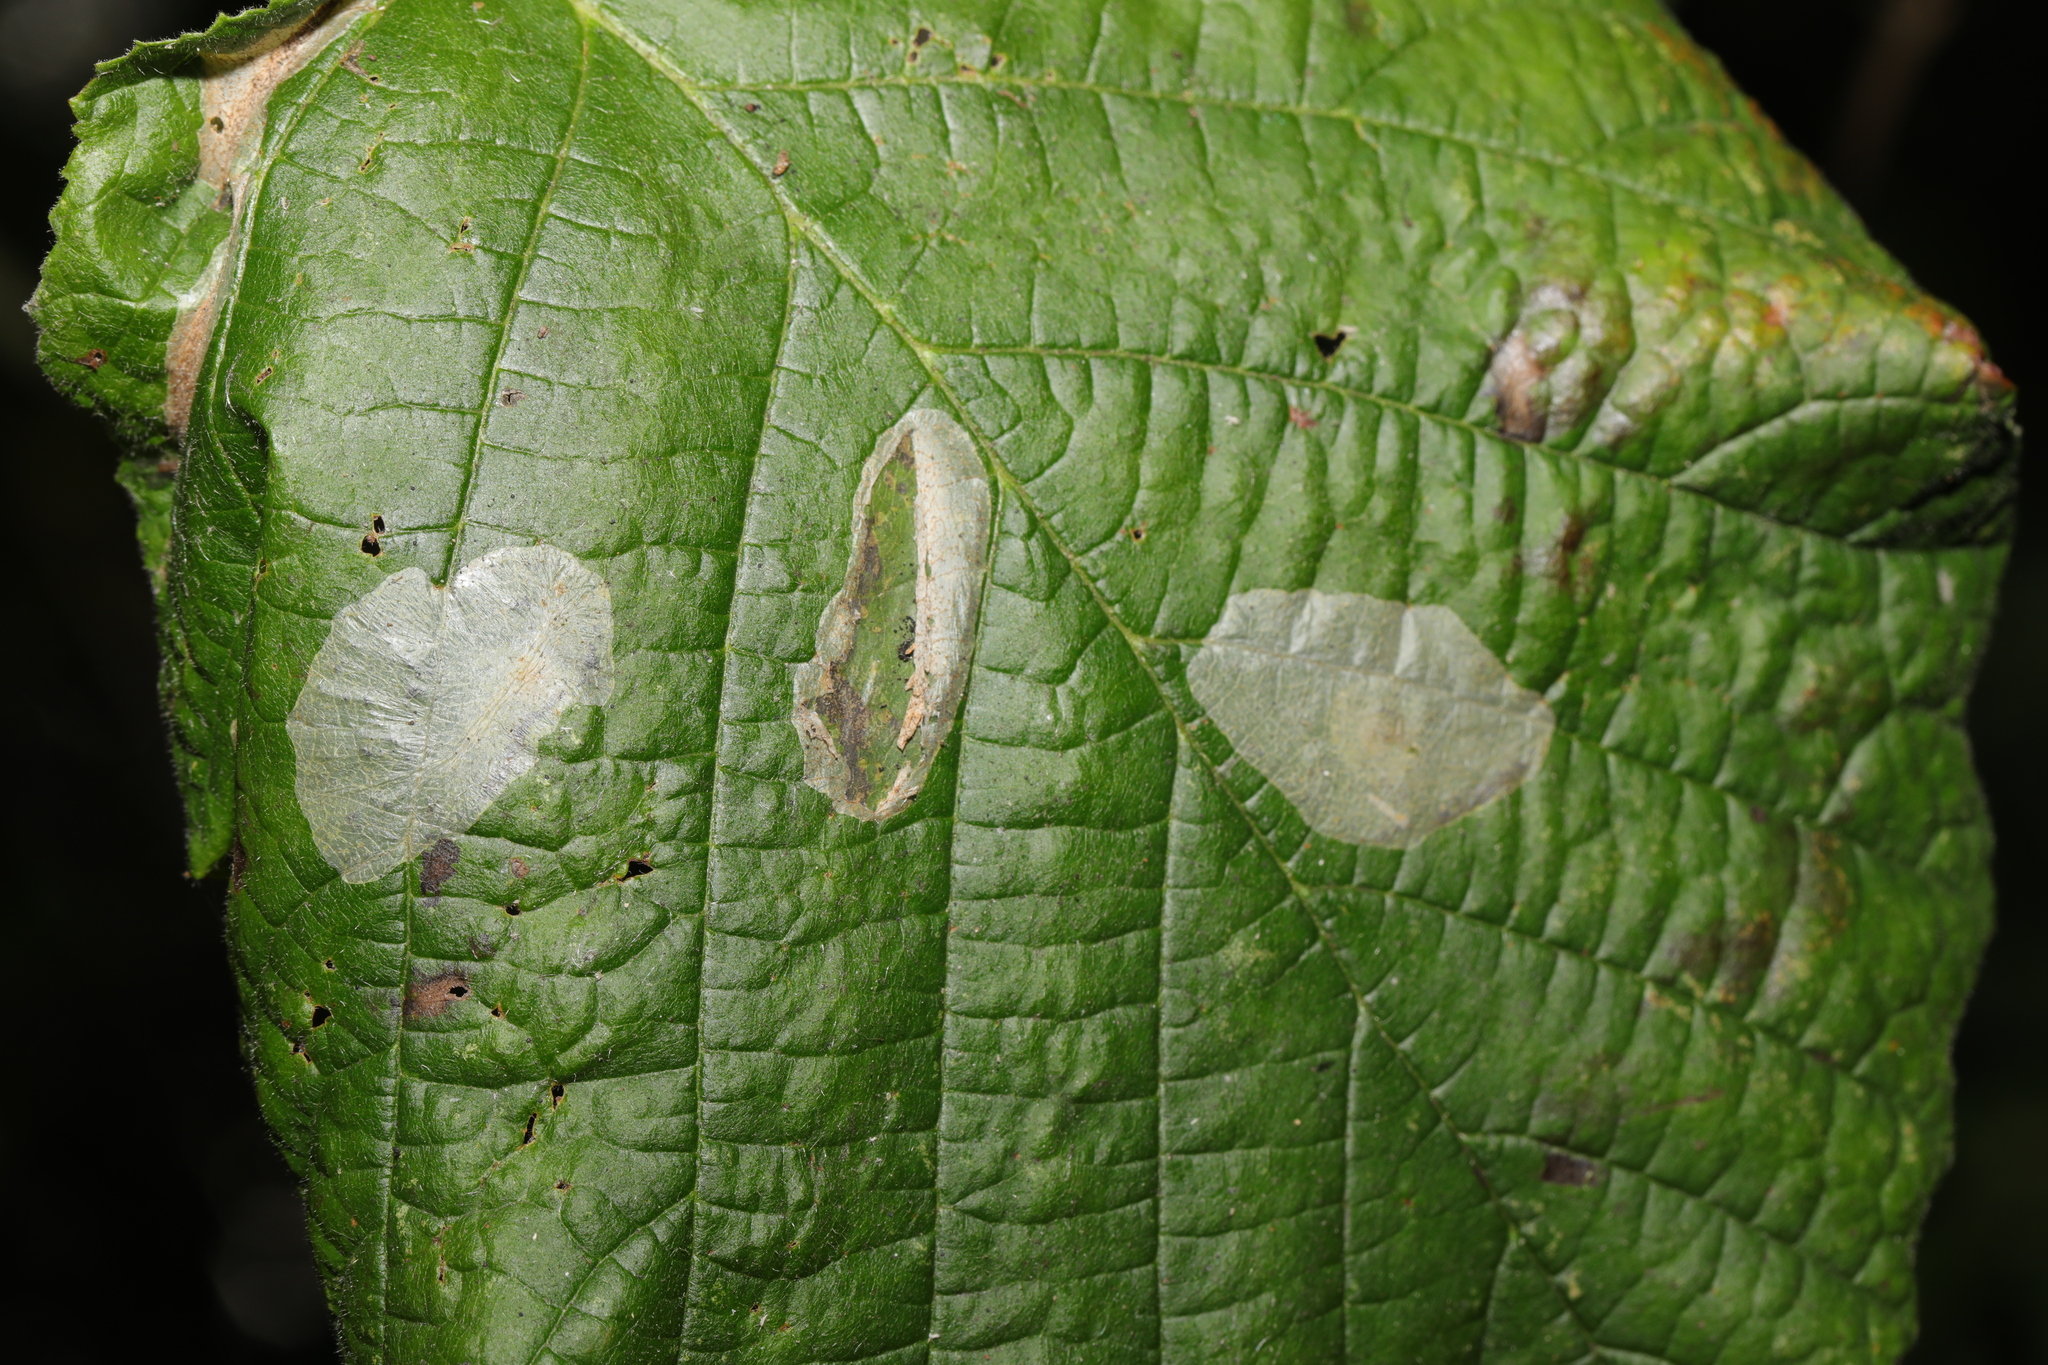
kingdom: Animalia
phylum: Arthropoda
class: Insecta
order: Lepidoptera
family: Gracillariidae
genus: Phyllonorycter
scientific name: Phyllonorycter coryli
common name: Nut-leaf blister moth
